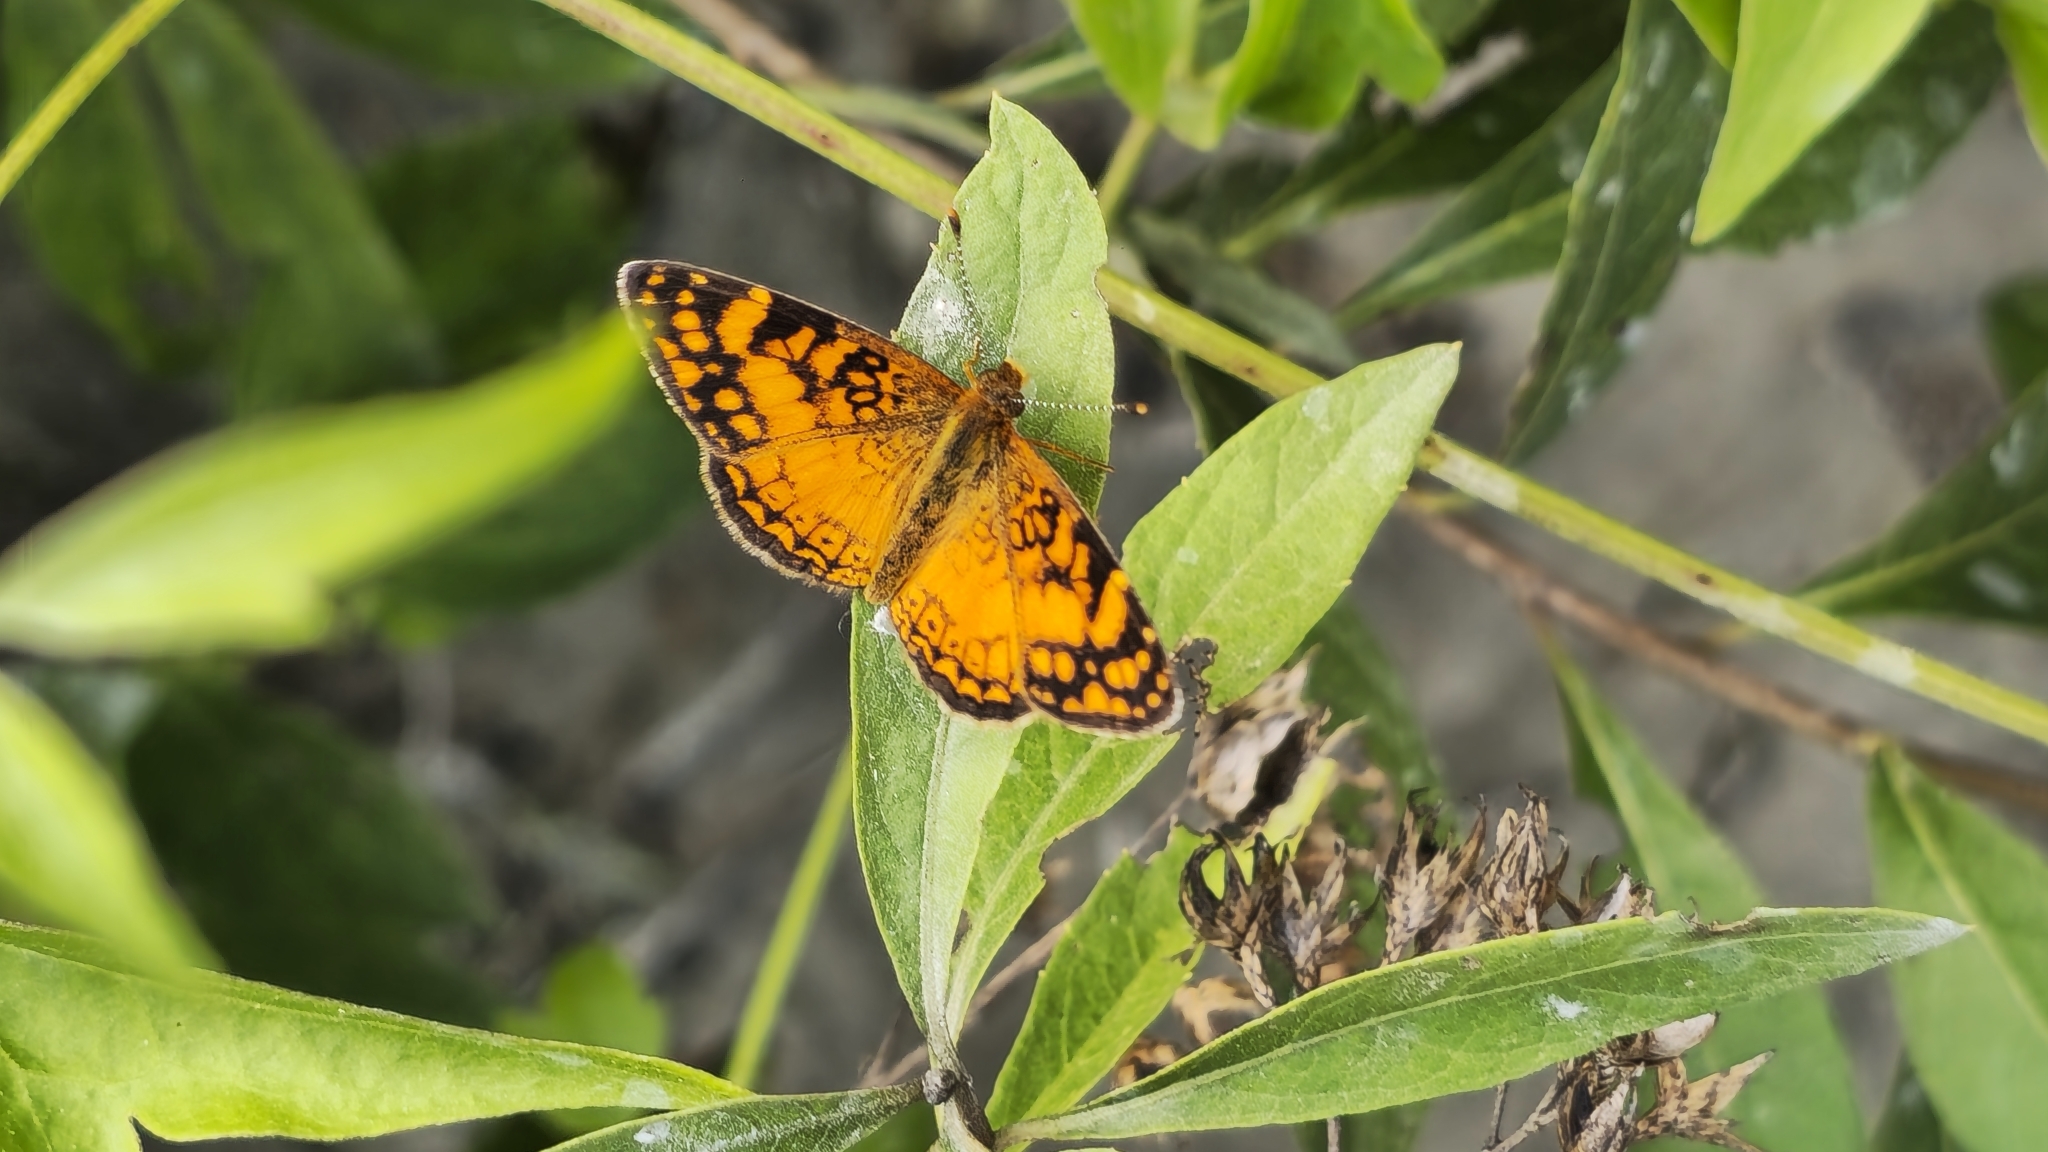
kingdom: Animalia
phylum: Arthropoda
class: Insecta
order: Lepidoptera
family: Nymphalidae
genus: Tegosa
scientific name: Tegosa orobia
